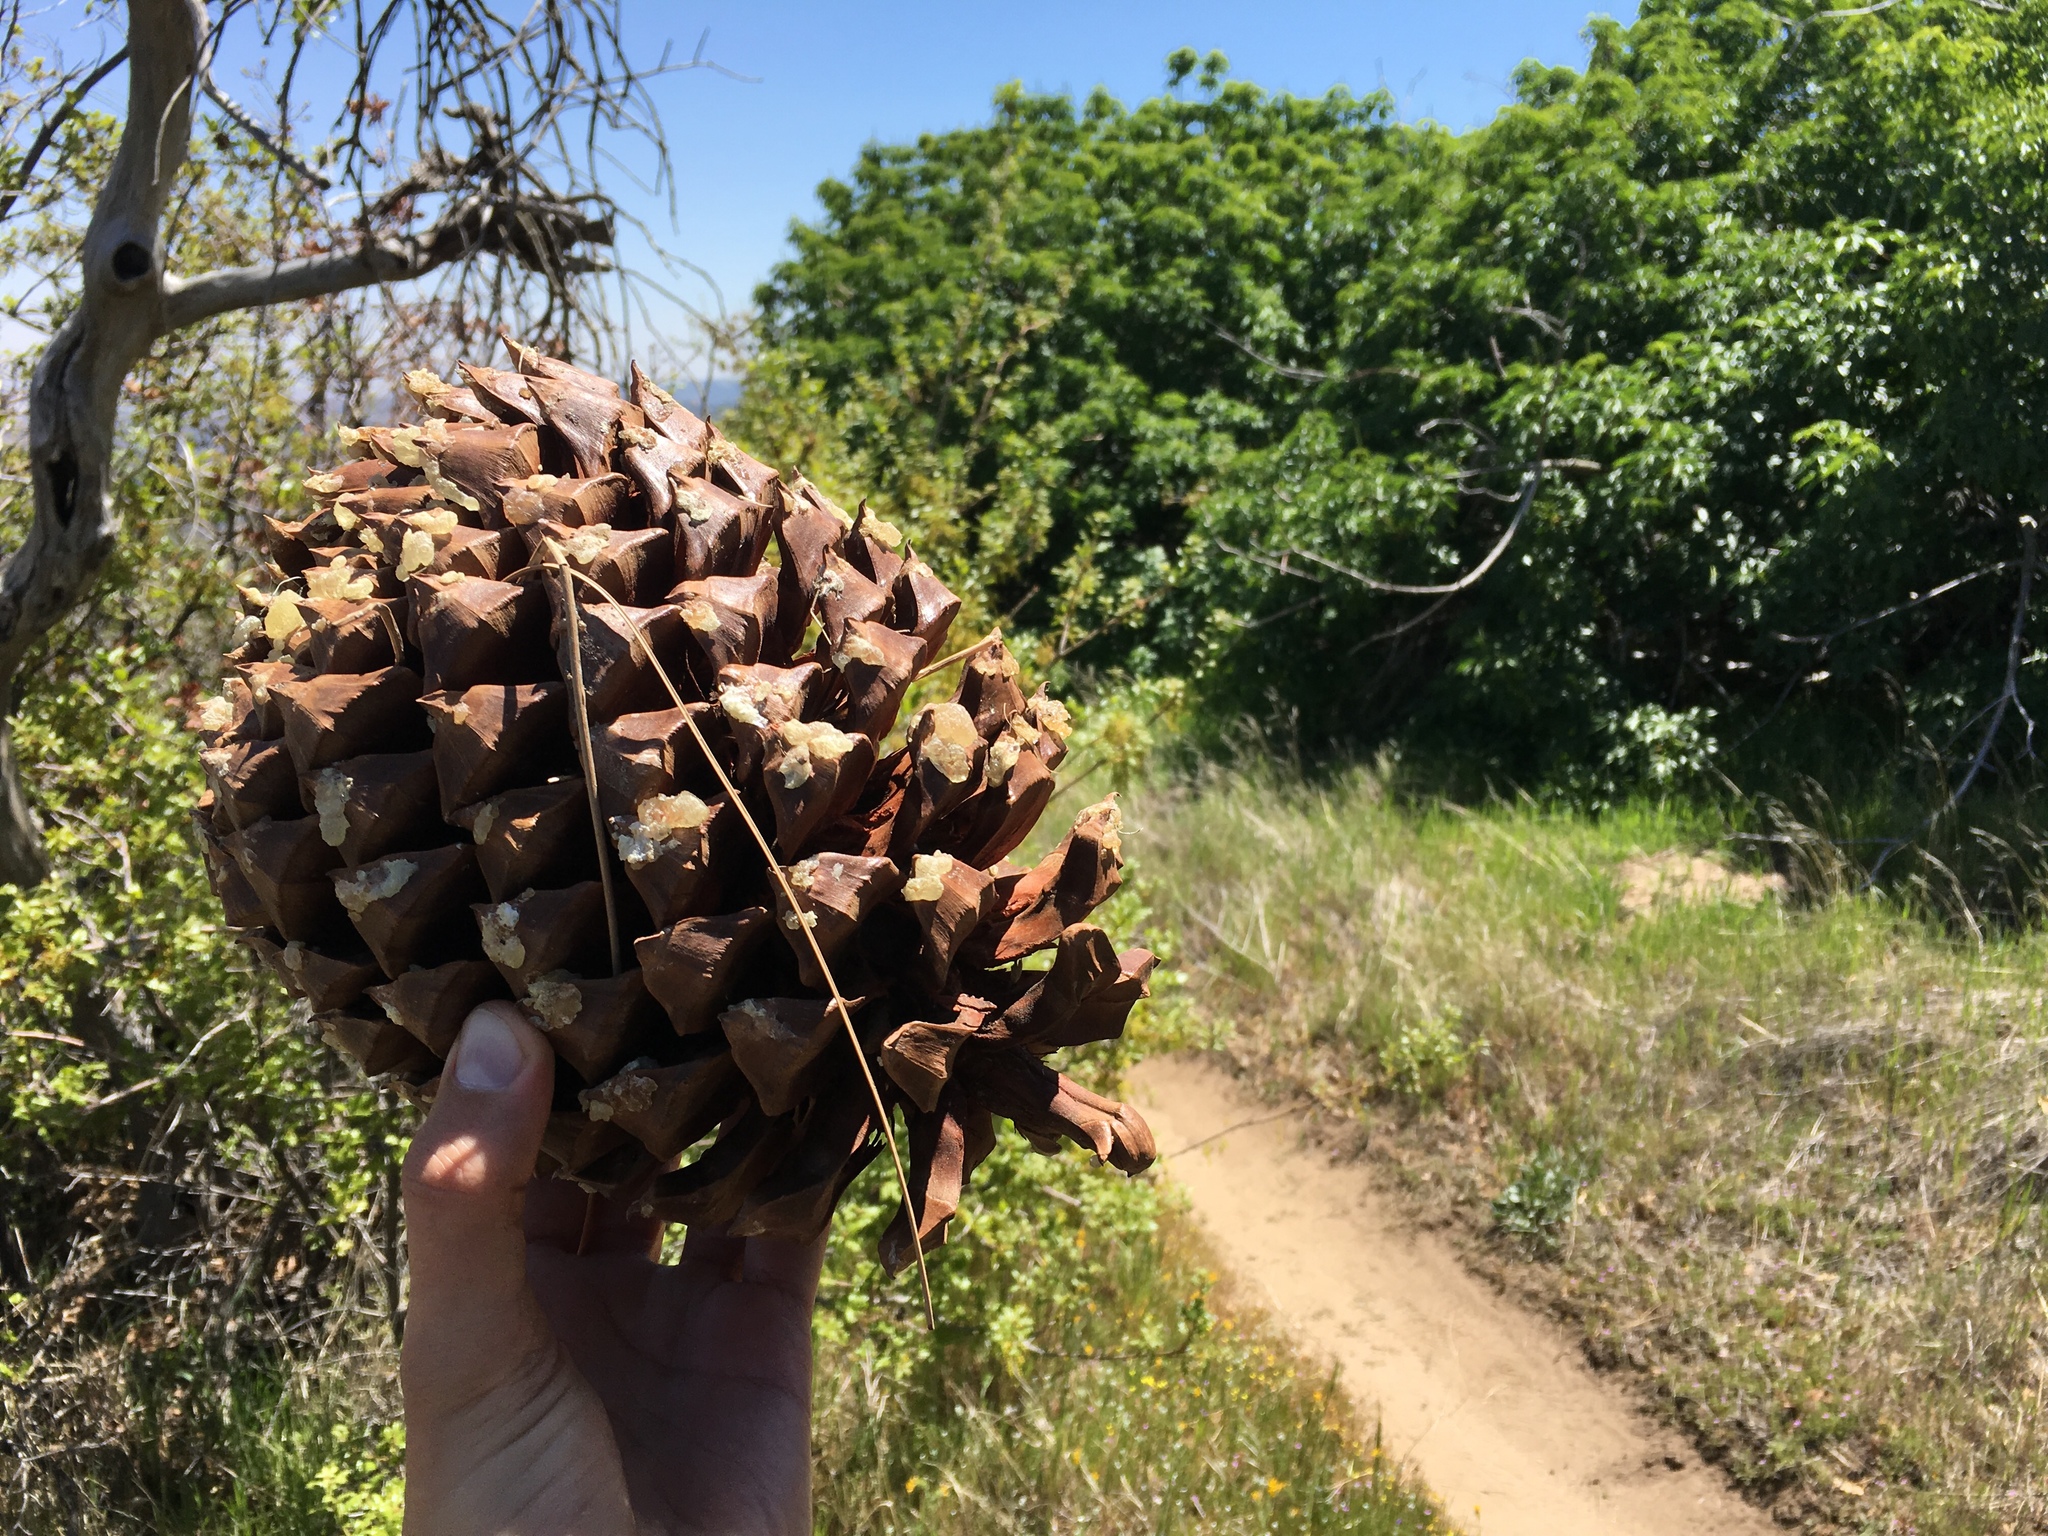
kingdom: Plantae
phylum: Tracheophyta
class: Pinopsida
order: Pinales
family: Pinaceae
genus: Pinus
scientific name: Pinus sabiniana
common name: Bull pine
